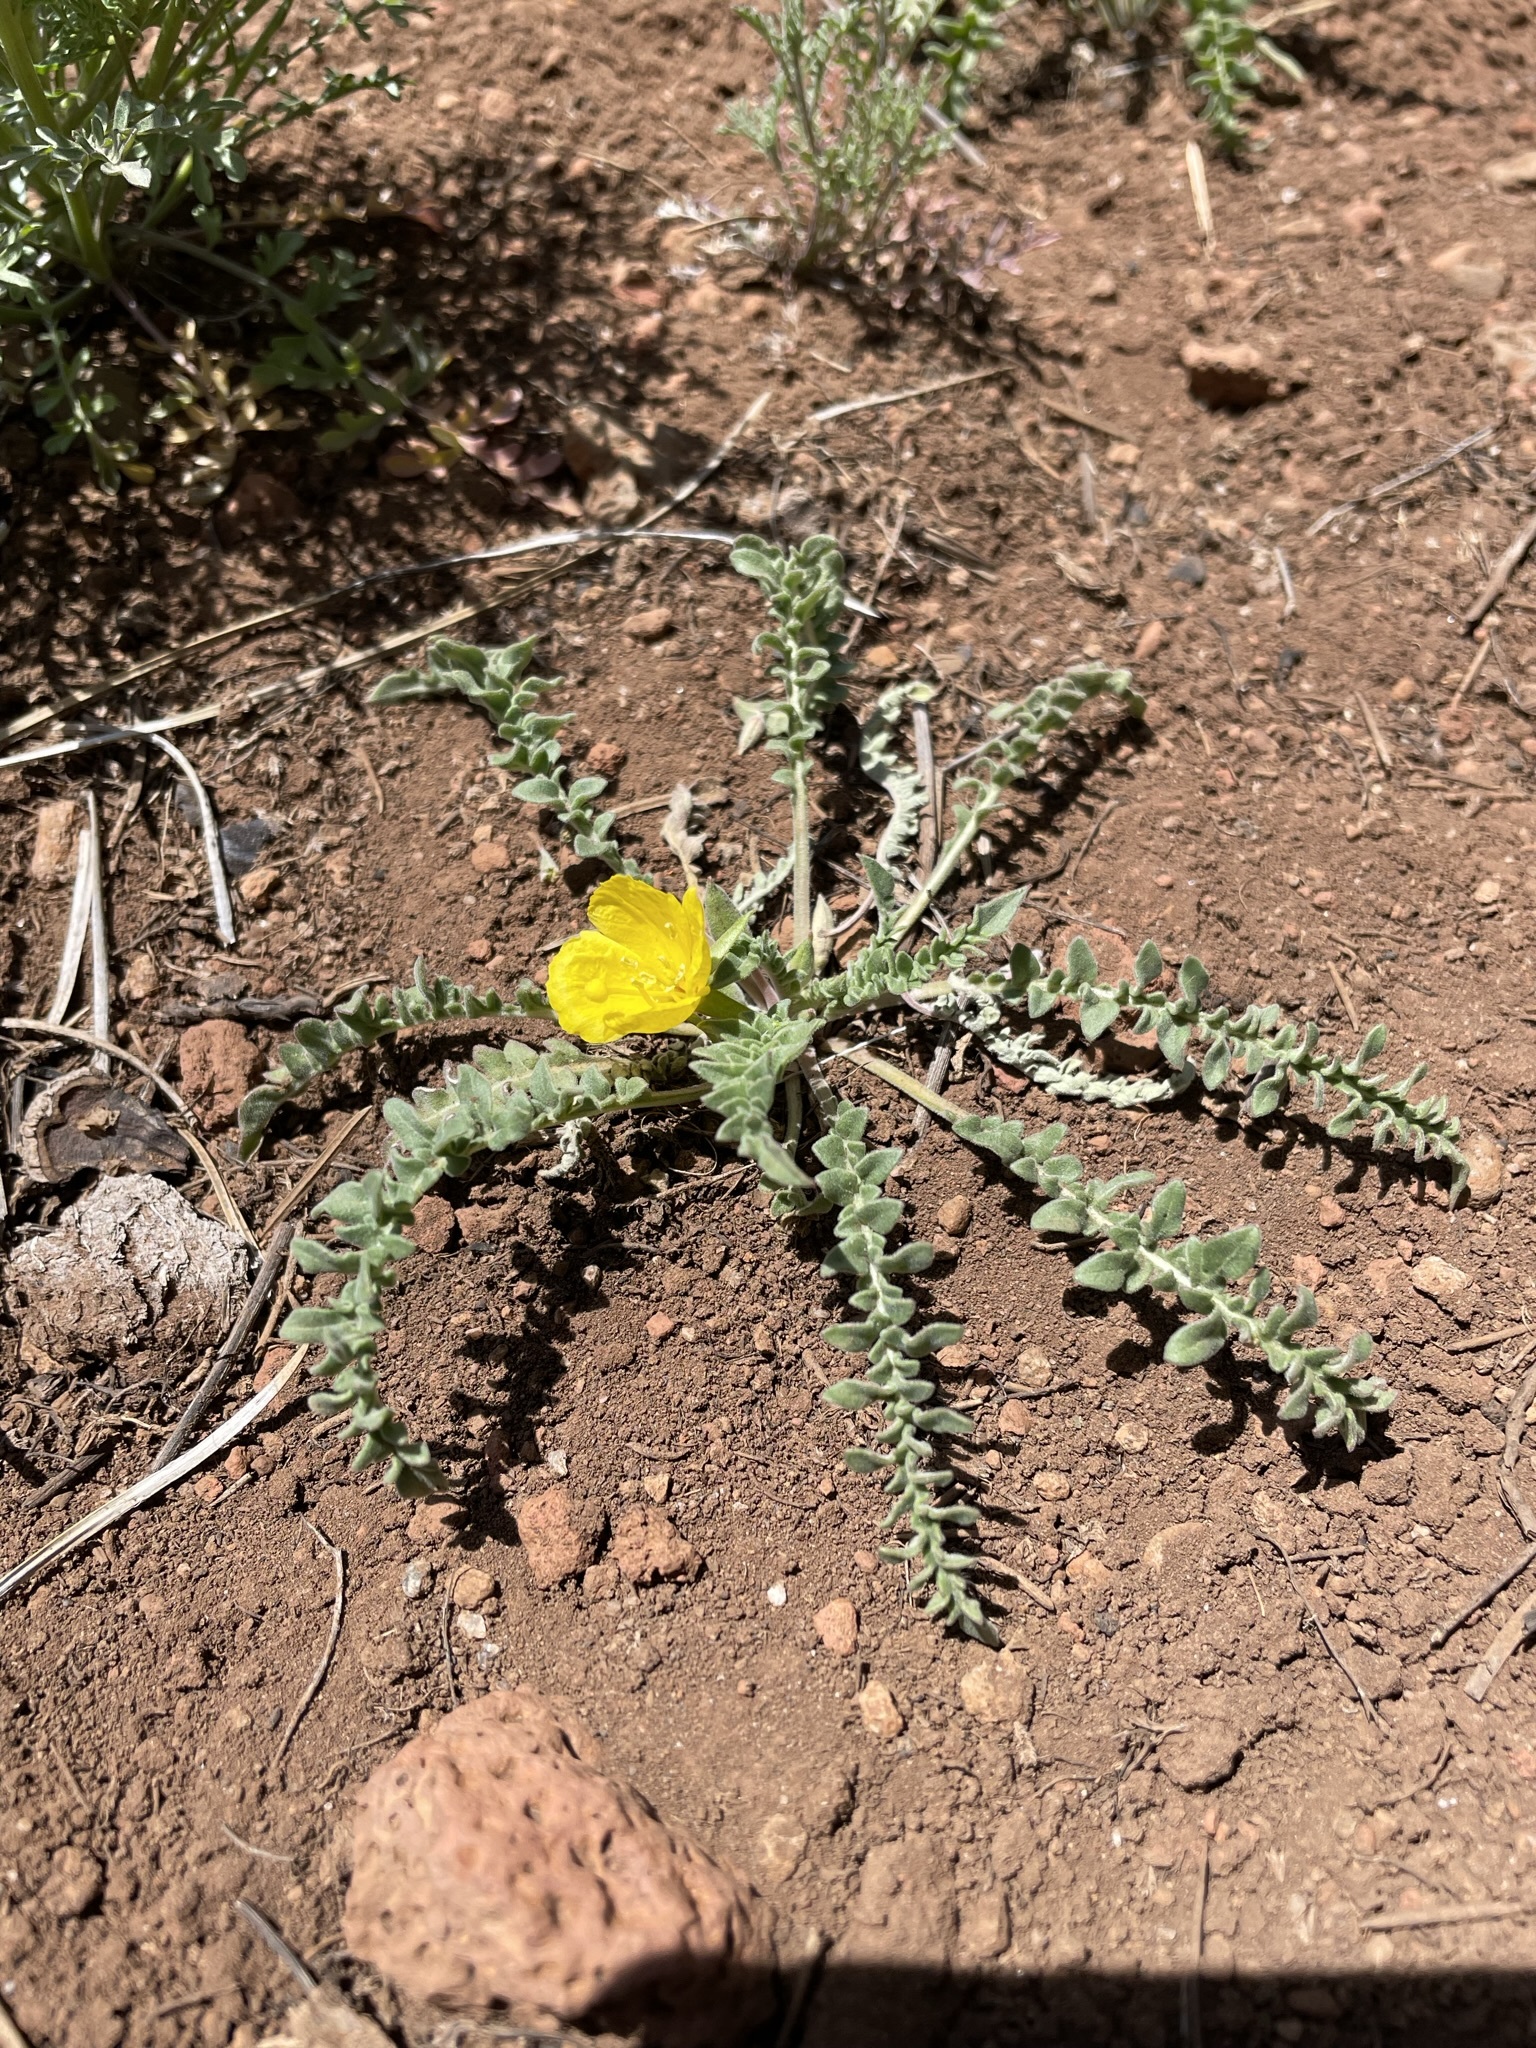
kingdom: Plantae
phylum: Tracheophyta
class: Magnoliopsida
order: Myrtales
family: Onagraceae
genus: Taraxia
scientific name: Taraxia tanacetifolia
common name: Tansyleaf evening primrose
